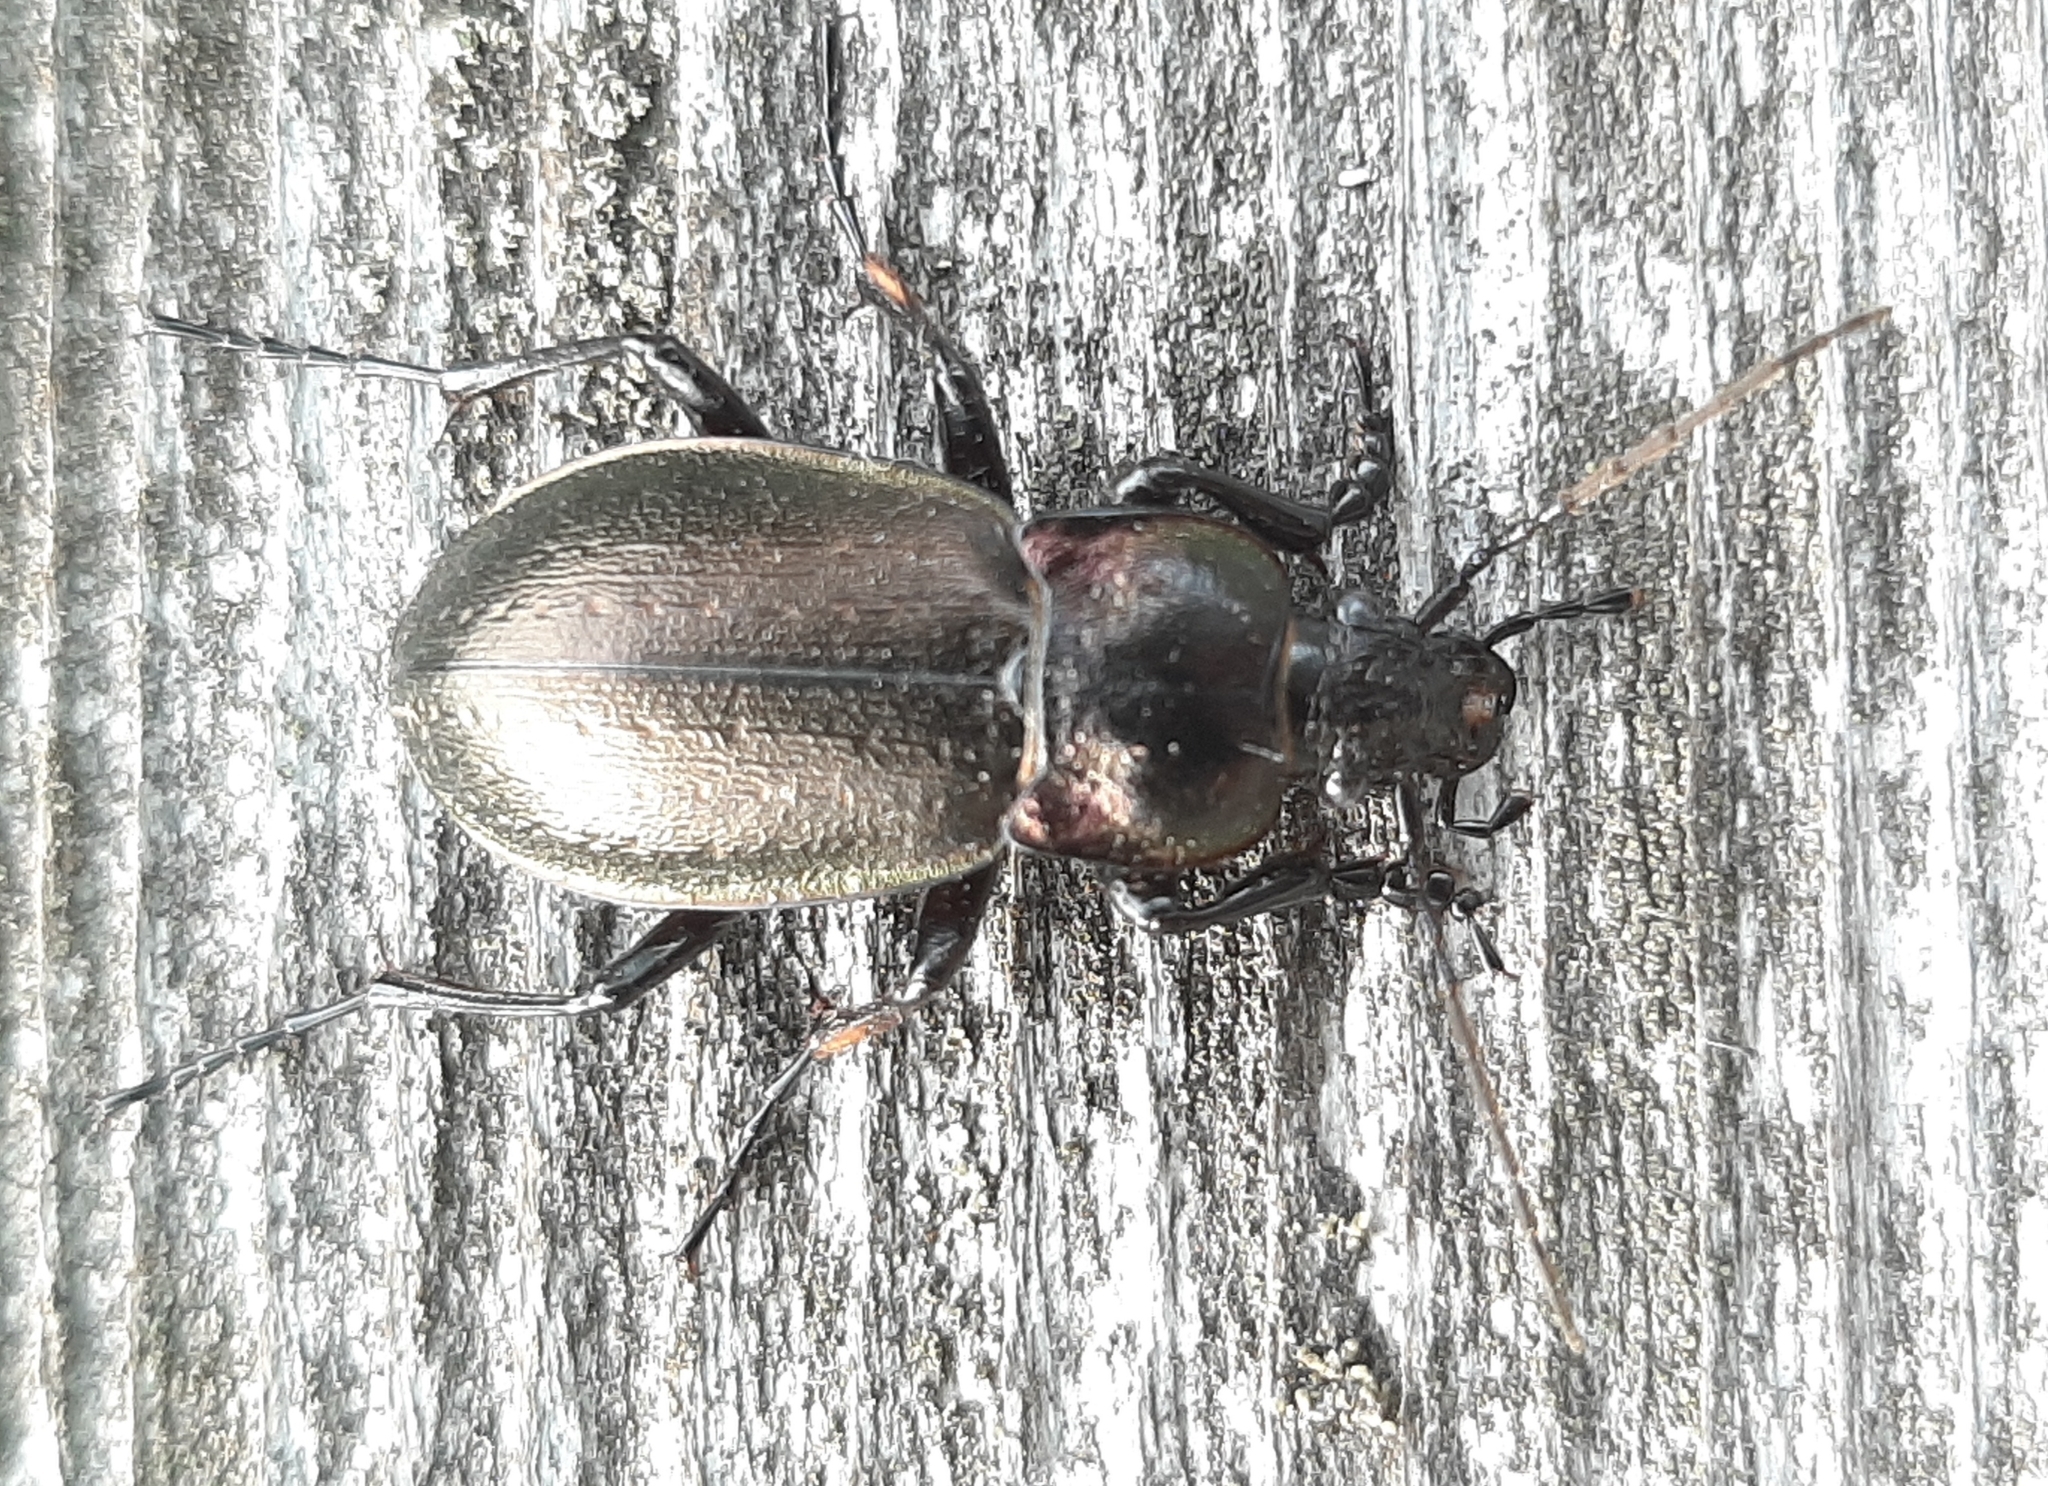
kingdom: Animalia
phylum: Arthropoda
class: Insecta
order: Coleoptera
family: Carabidae
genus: Carabus
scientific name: Carabus nemoralis
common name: European ground beetle
